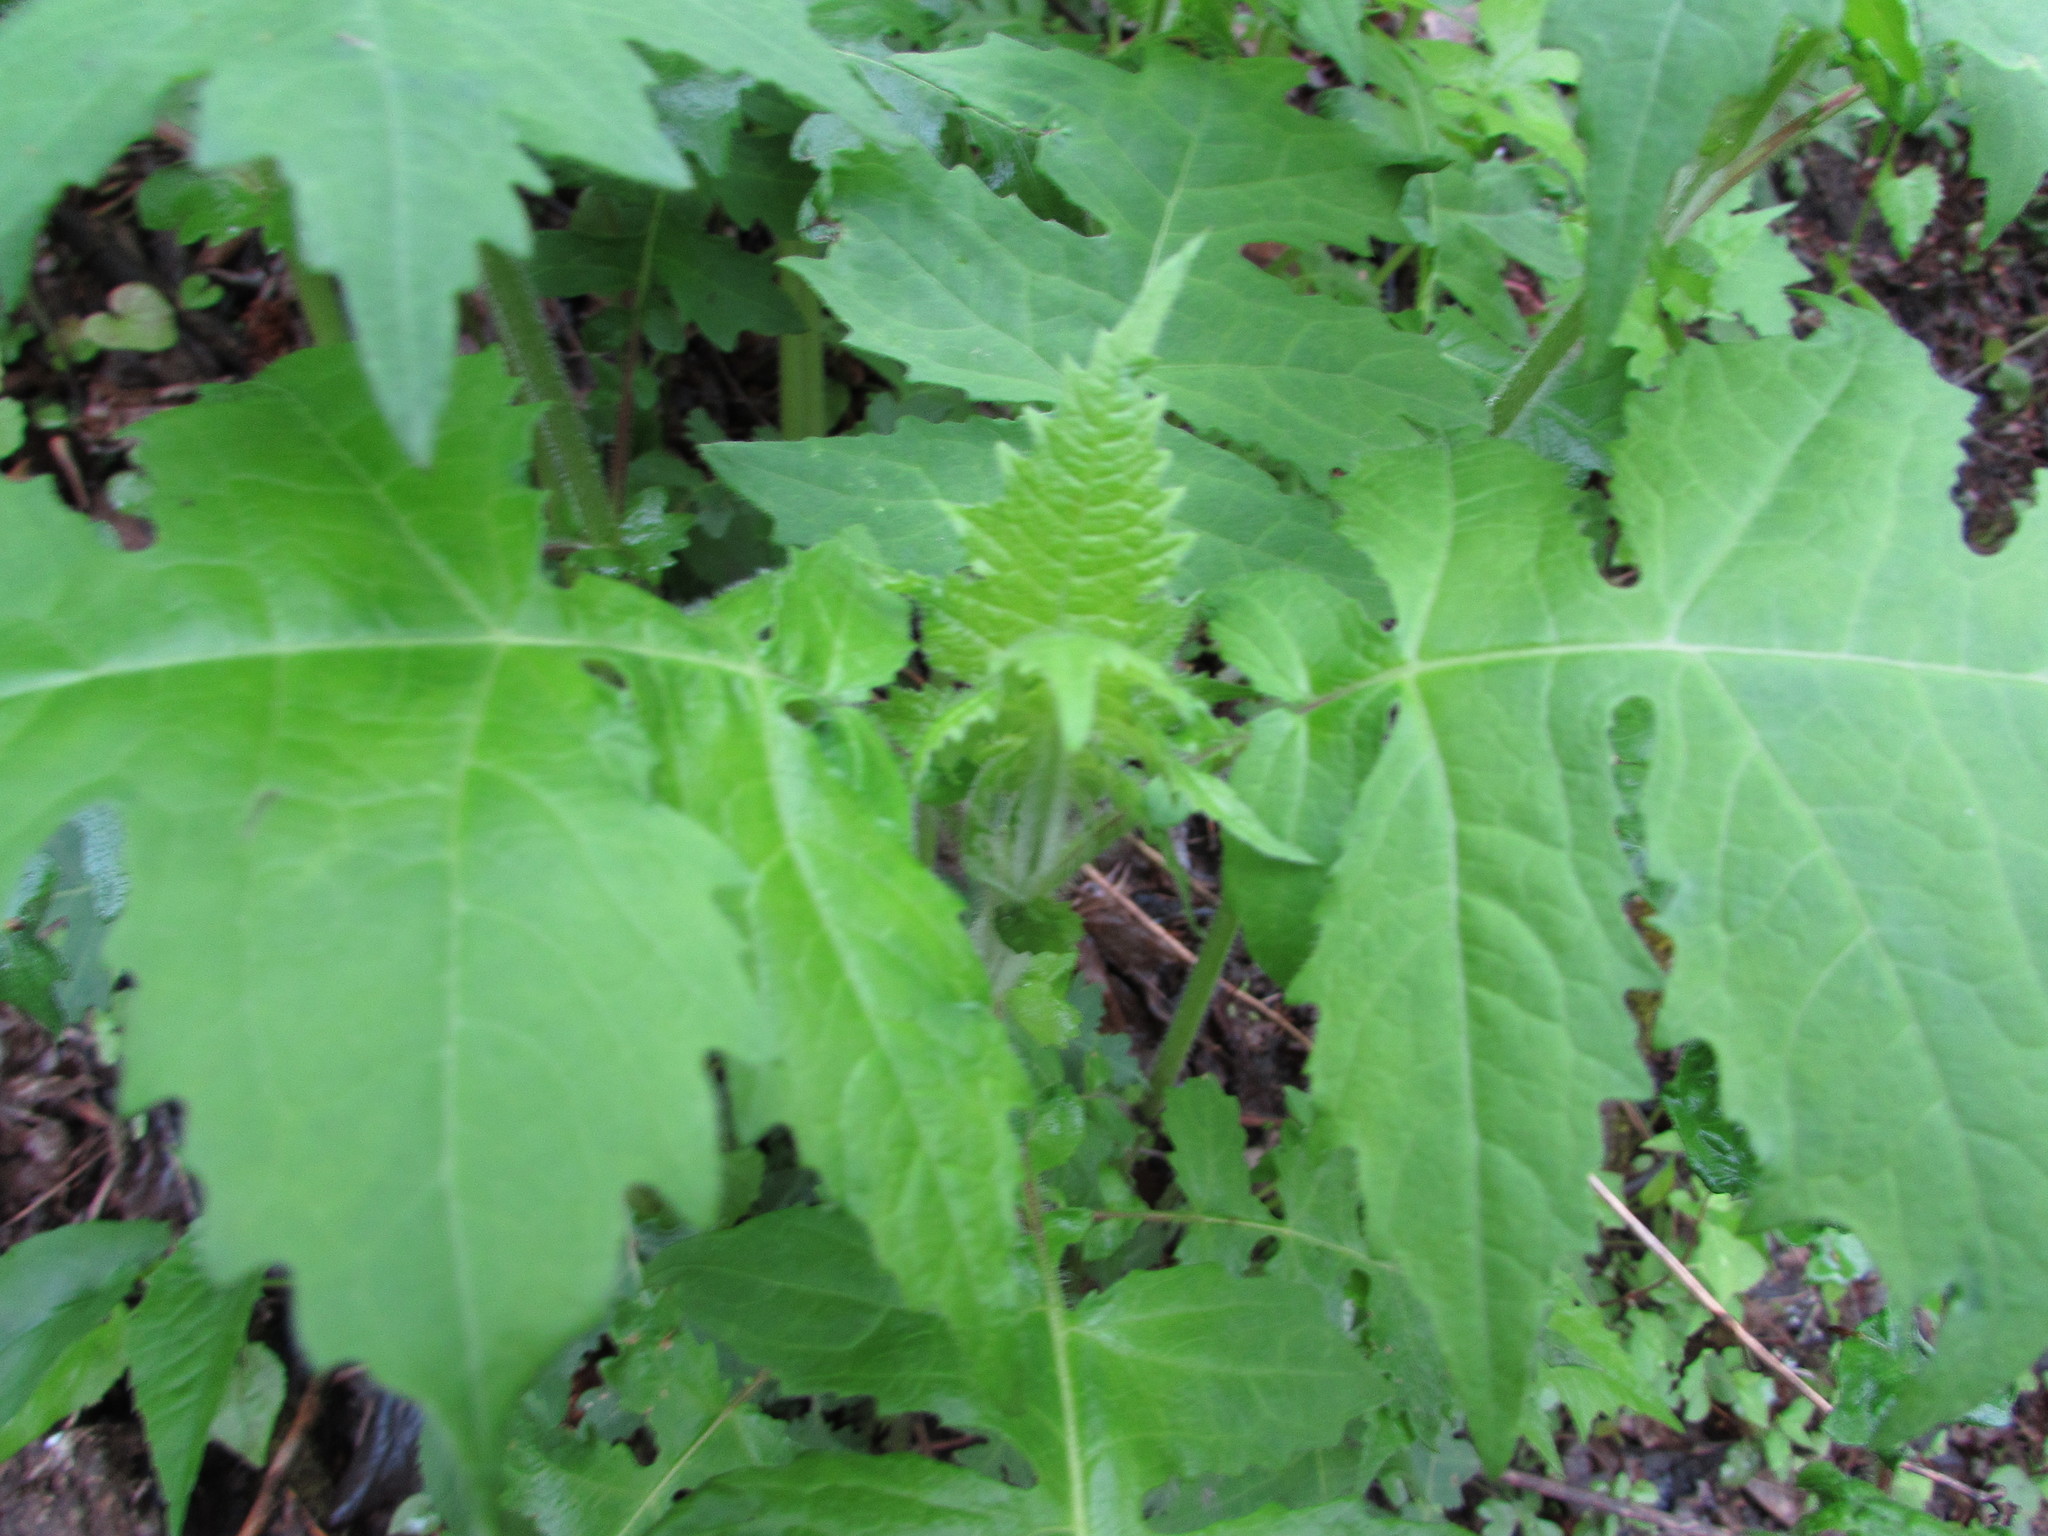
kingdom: Plantae
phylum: Tracheophyta
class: Magnoliopsida
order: Asterales
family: Asteraceae
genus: Polymnia
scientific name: Polymnia canadensis
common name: Pale-flowered leafcup
